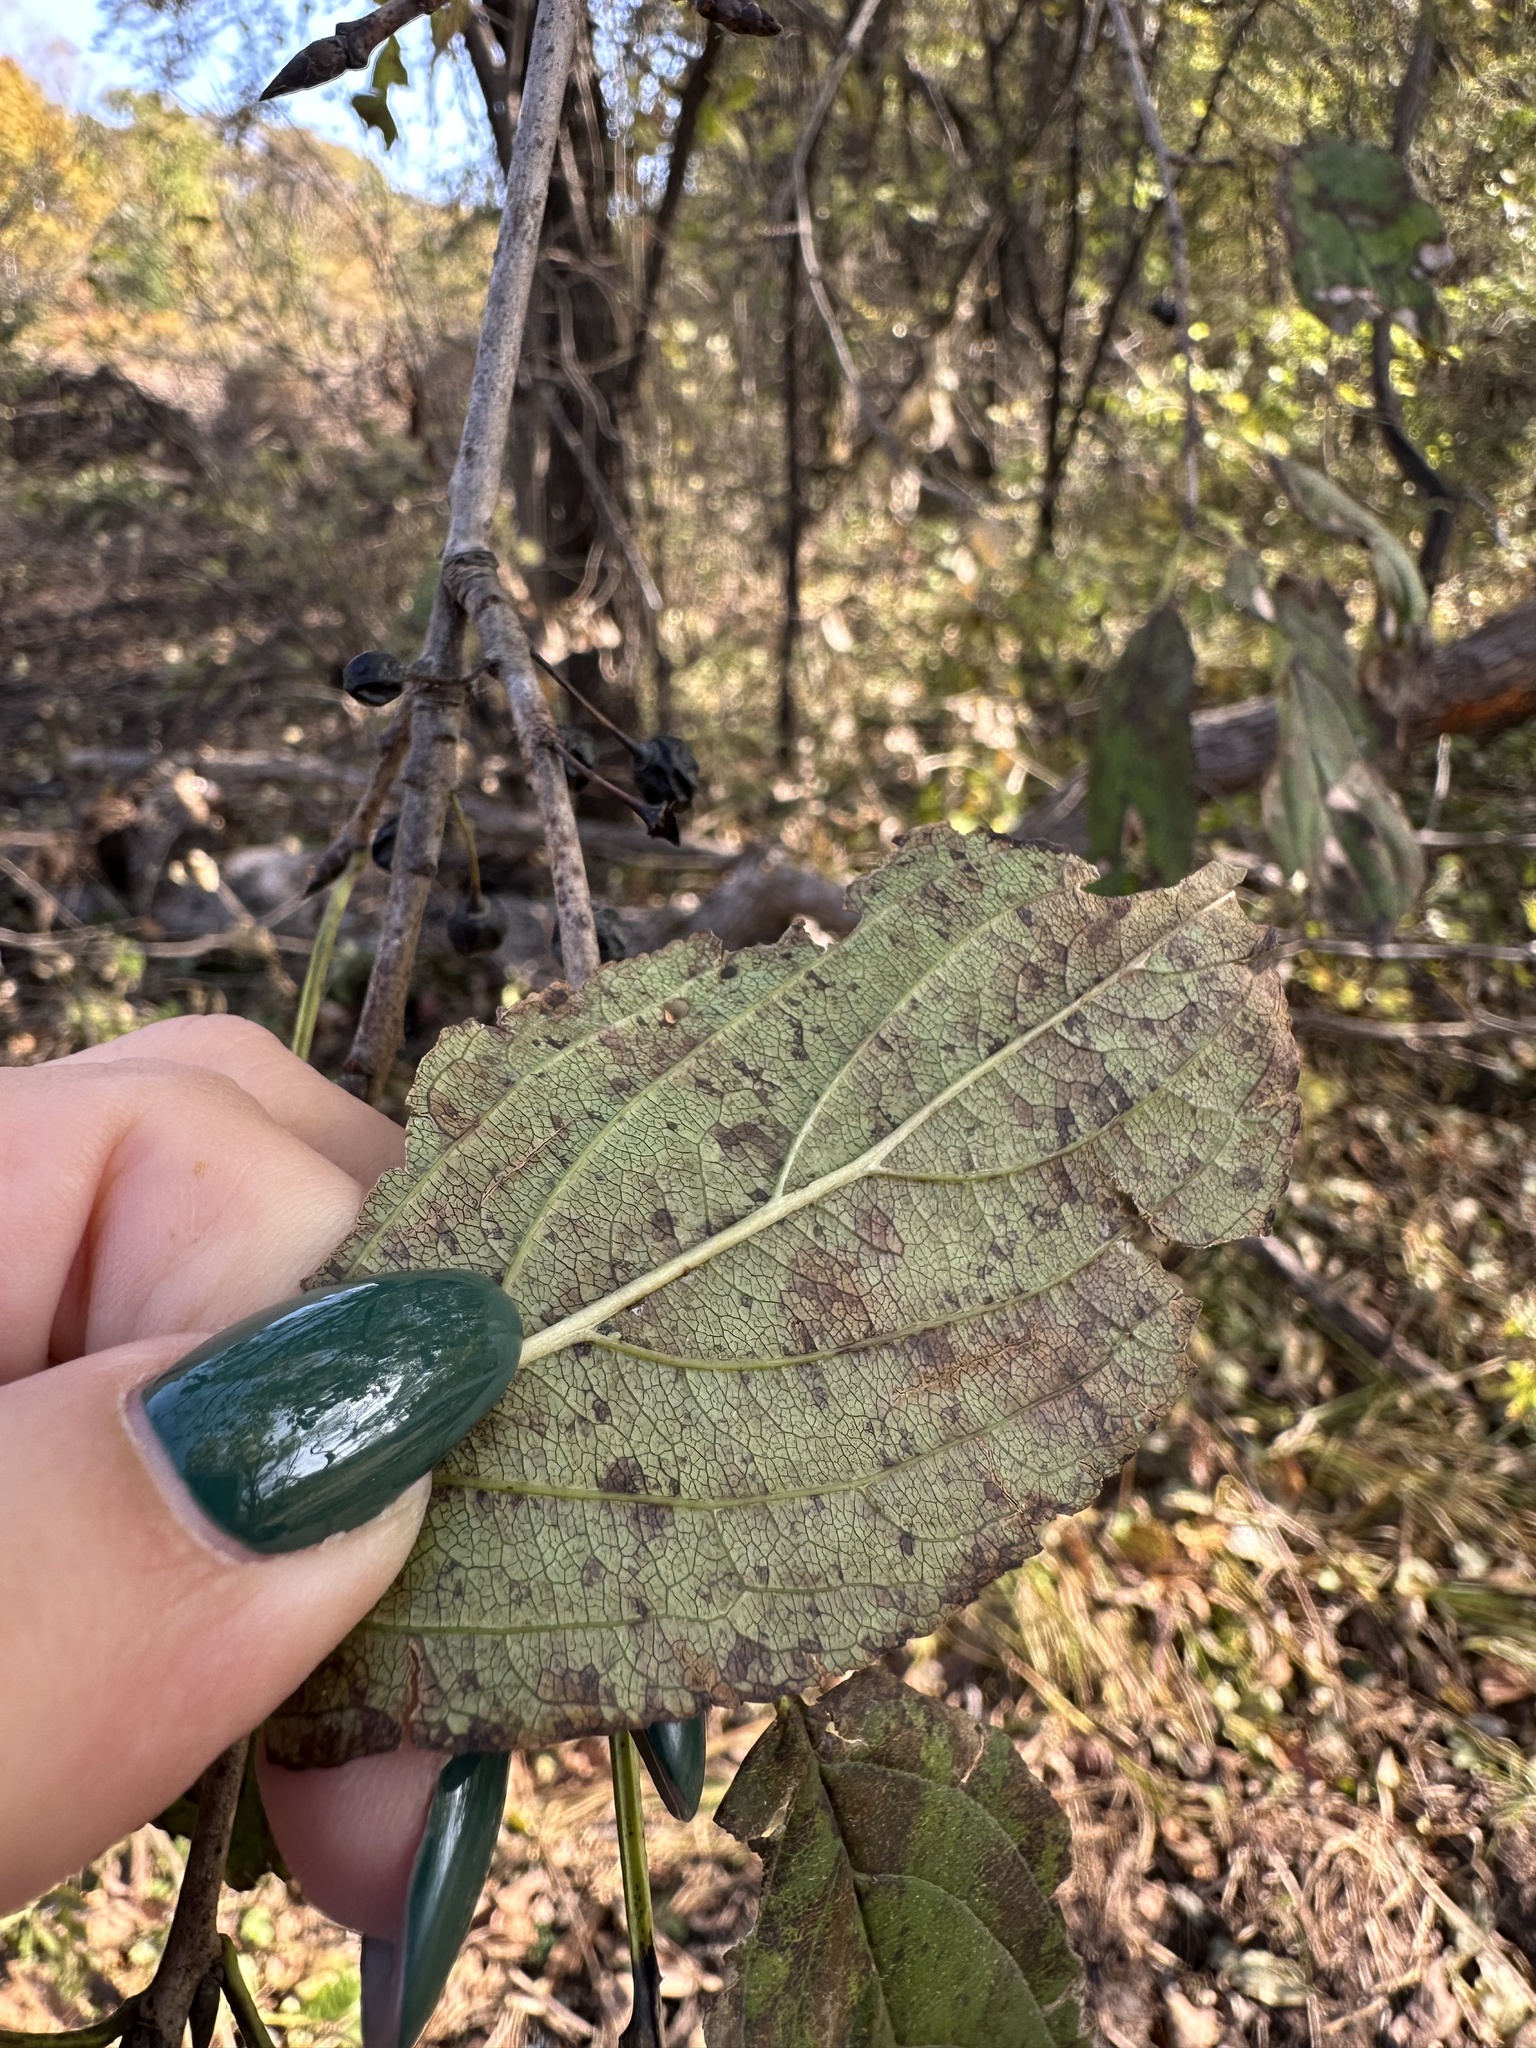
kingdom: Plantae
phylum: Tracheophyta
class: Magnoliopsida
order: Rosales
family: Rhamnaceae
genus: Rhamnus
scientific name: Rhamnus virgata
